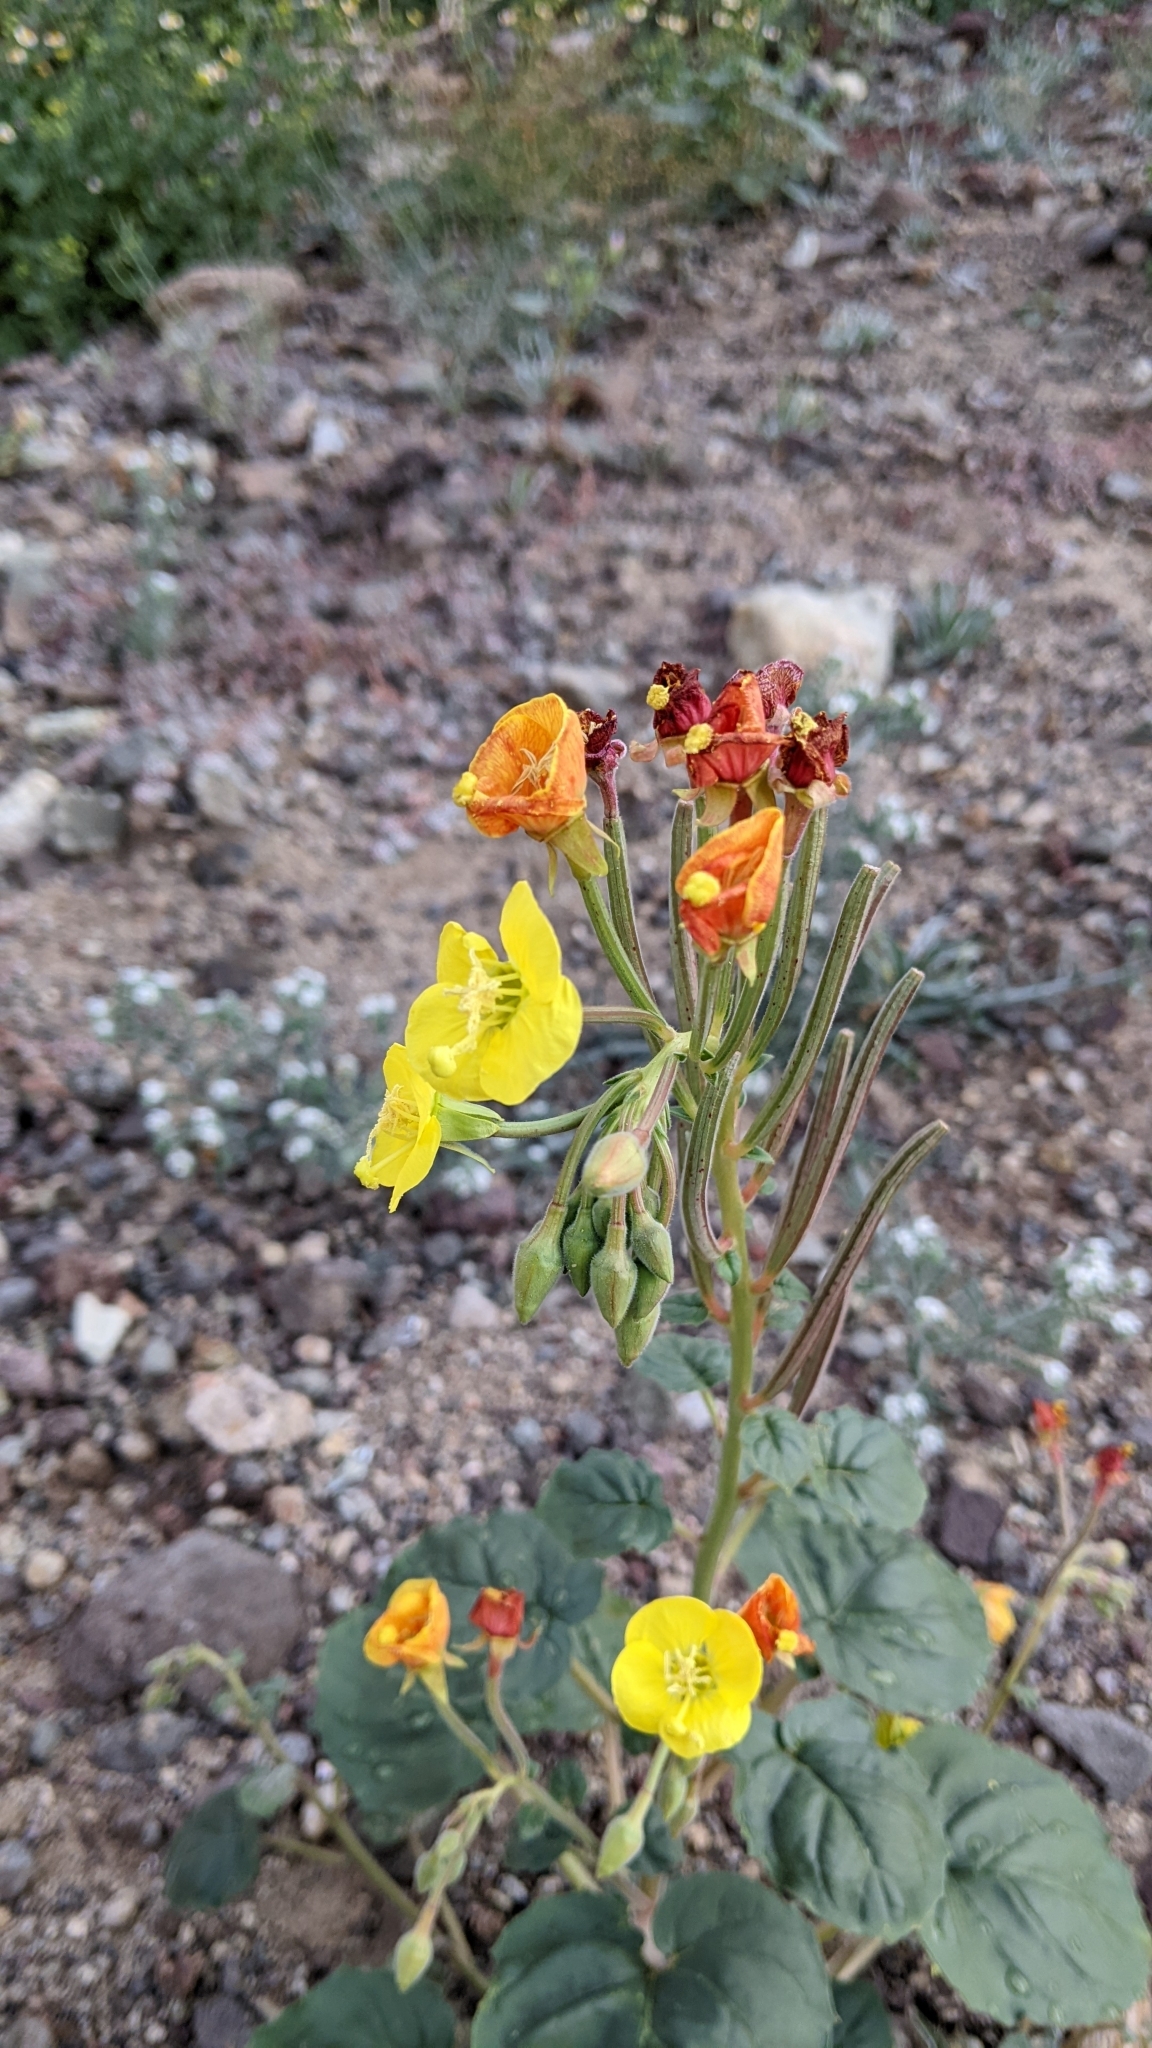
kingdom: Plantae
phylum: Tracheophyta
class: Magnoliopsida
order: Myrtales
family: Onagraceae
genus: Chylismia
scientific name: Chylismia cardiophylla
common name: Heartleaf suncup
